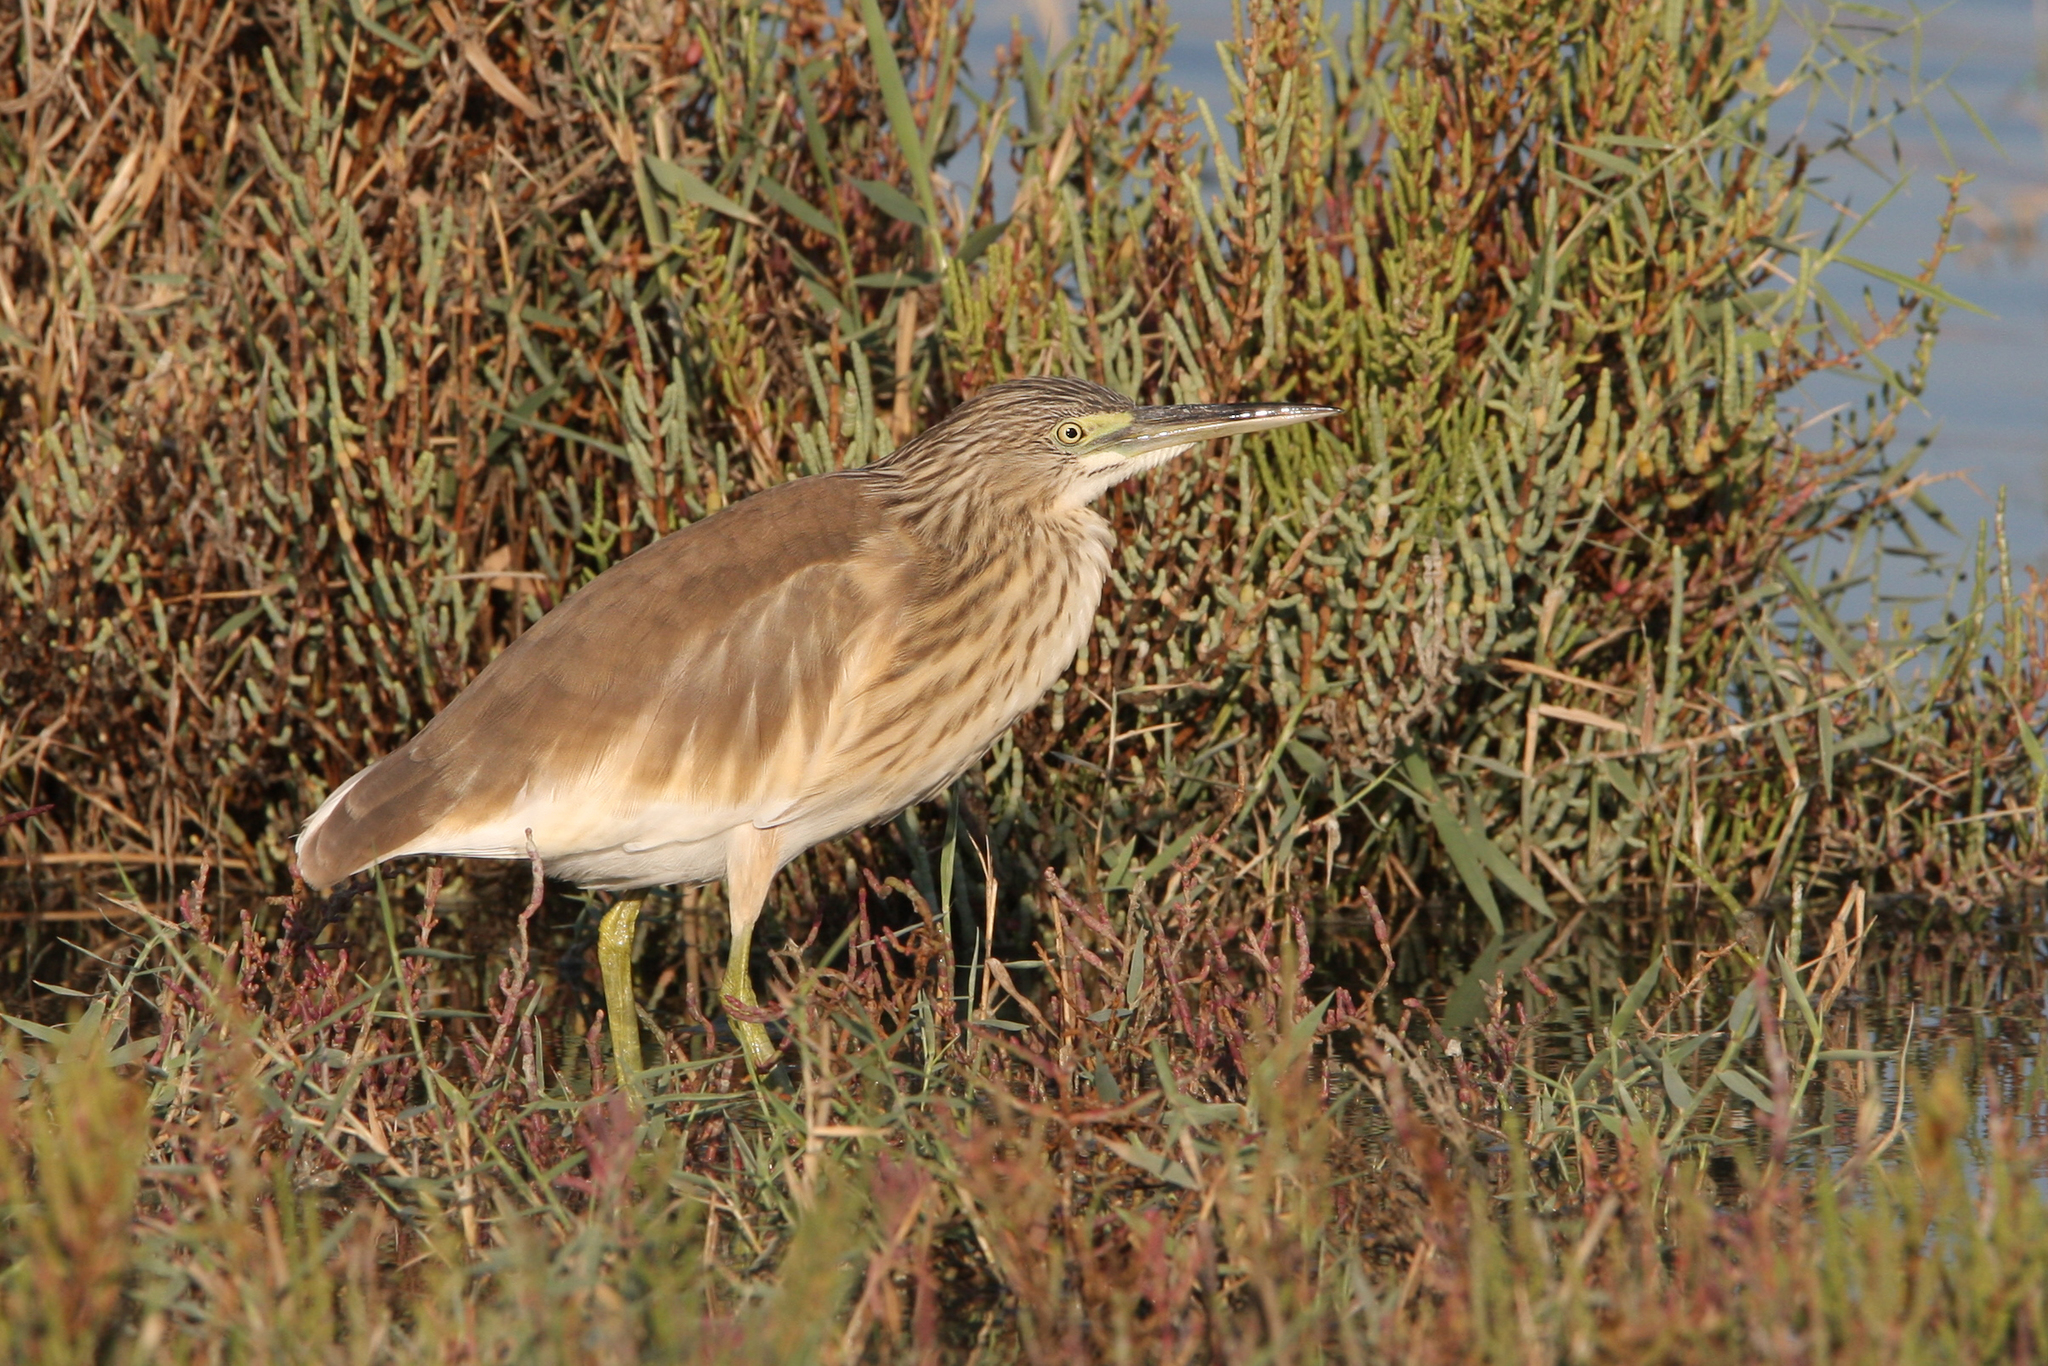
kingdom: Animalia
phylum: Chordata
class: Aves
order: Pelecaniformes
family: Ardeidae
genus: Ardeola
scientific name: Ardeola ralloides
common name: Squacco heron
